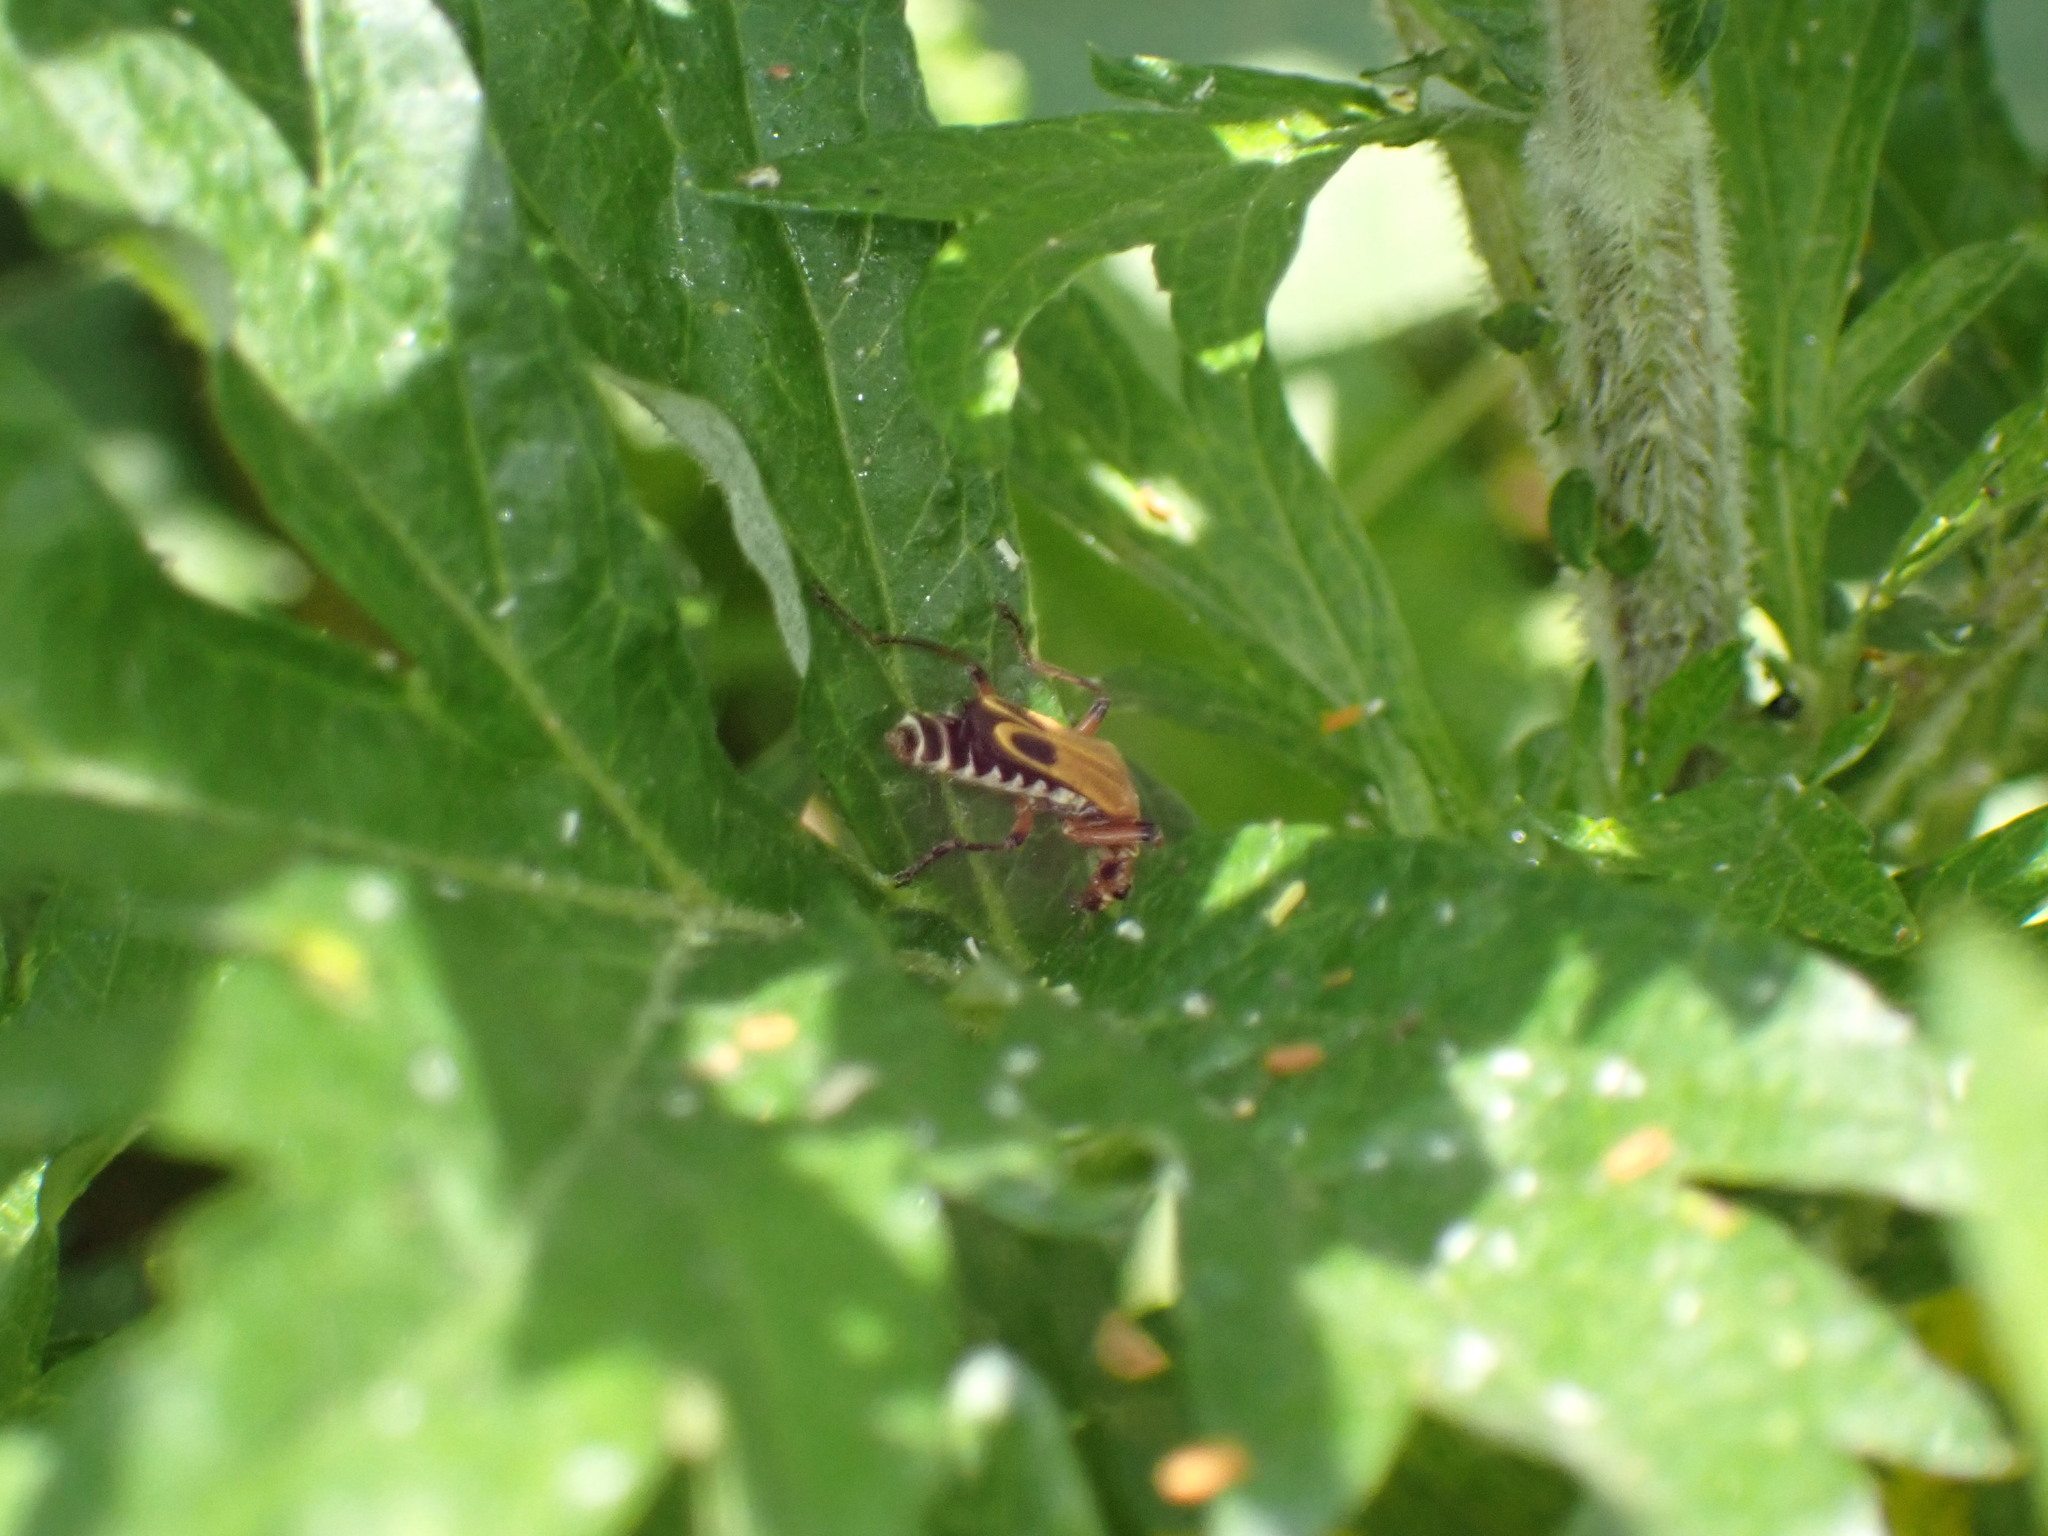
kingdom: Animalia
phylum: Arthropoda
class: Insecta
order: Coleoptera
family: Cantharidae
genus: Chauliognathus
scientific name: Chauliognathus marginatus
